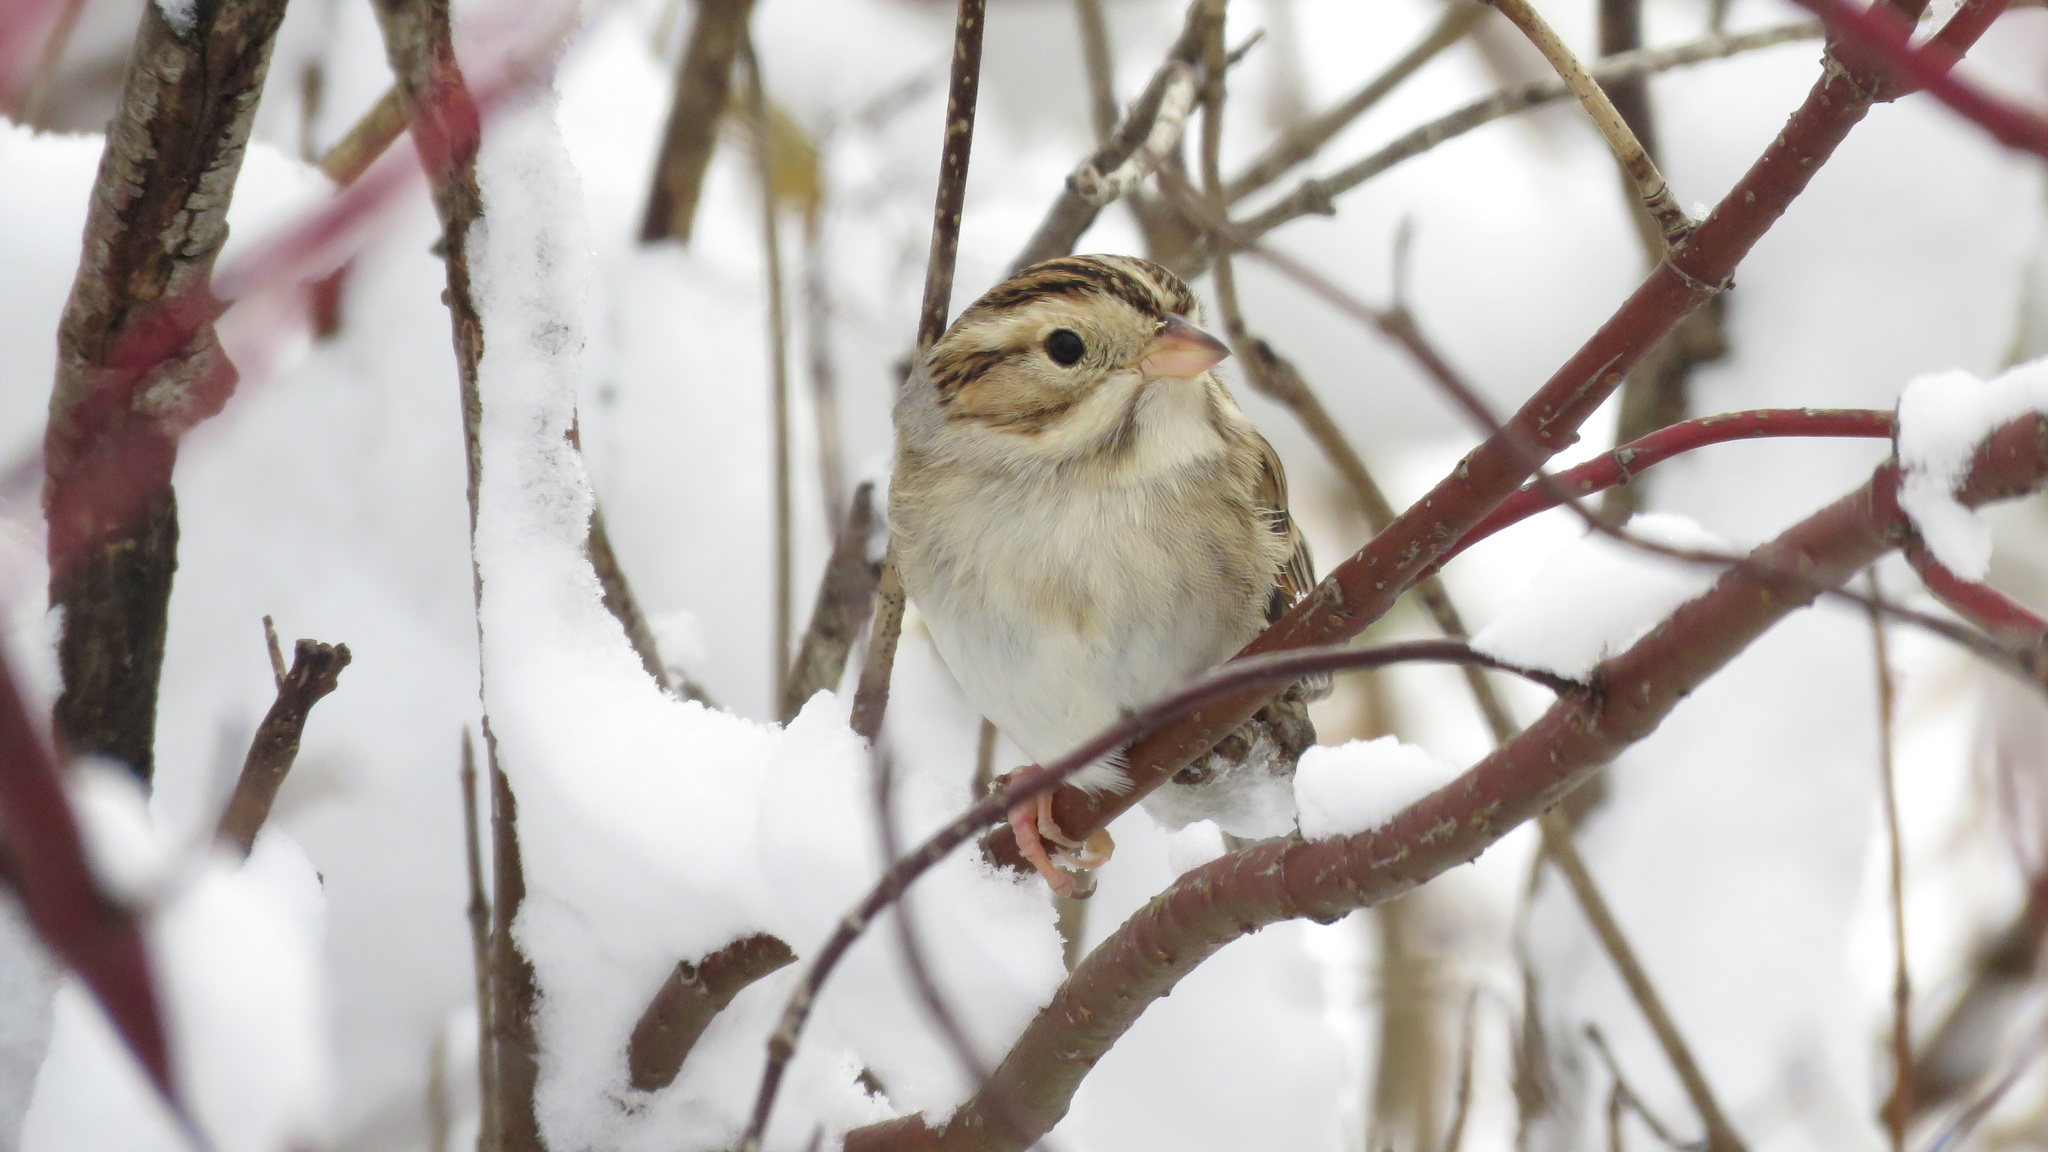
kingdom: Animalia
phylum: Chordata
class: Aves
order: Passeriformes
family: Passerellidae
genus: Spizella
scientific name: Spizella pallida
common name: Clay-colored sparrow
